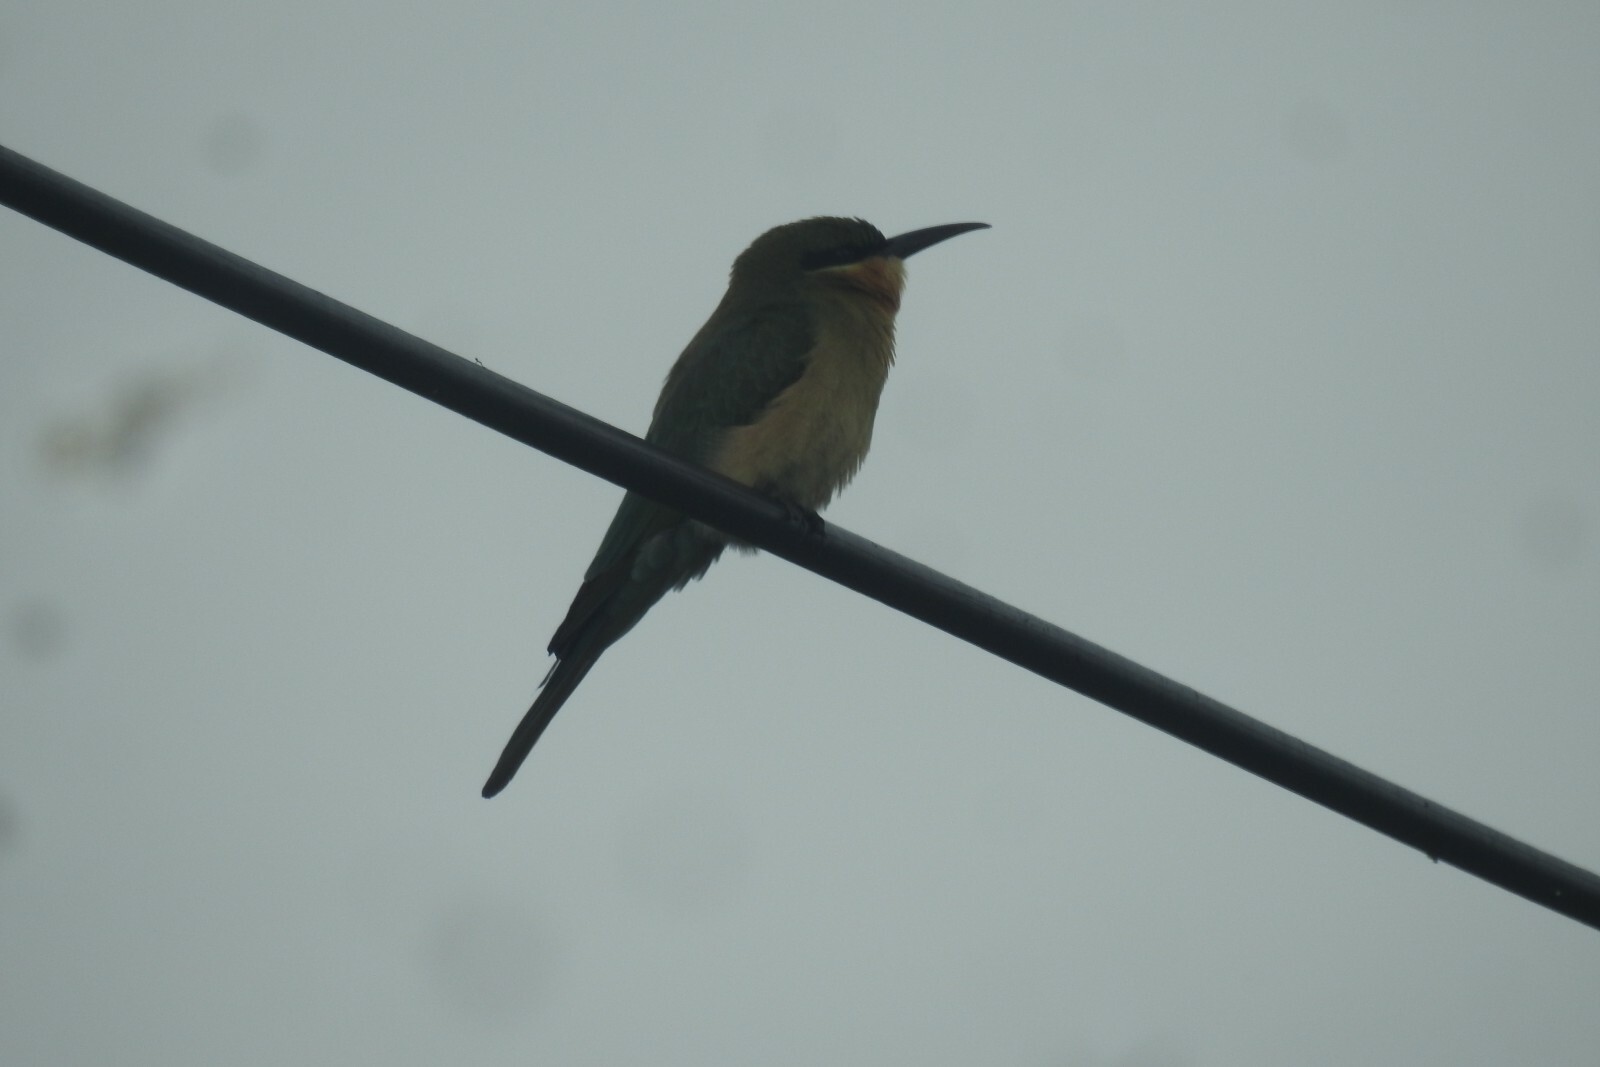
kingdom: Animalia
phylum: Chordata
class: Aves
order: Coraciiformes
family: Meropidae
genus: Merops
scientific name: Merops philippinus
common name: Blue-tailed bee-eater
